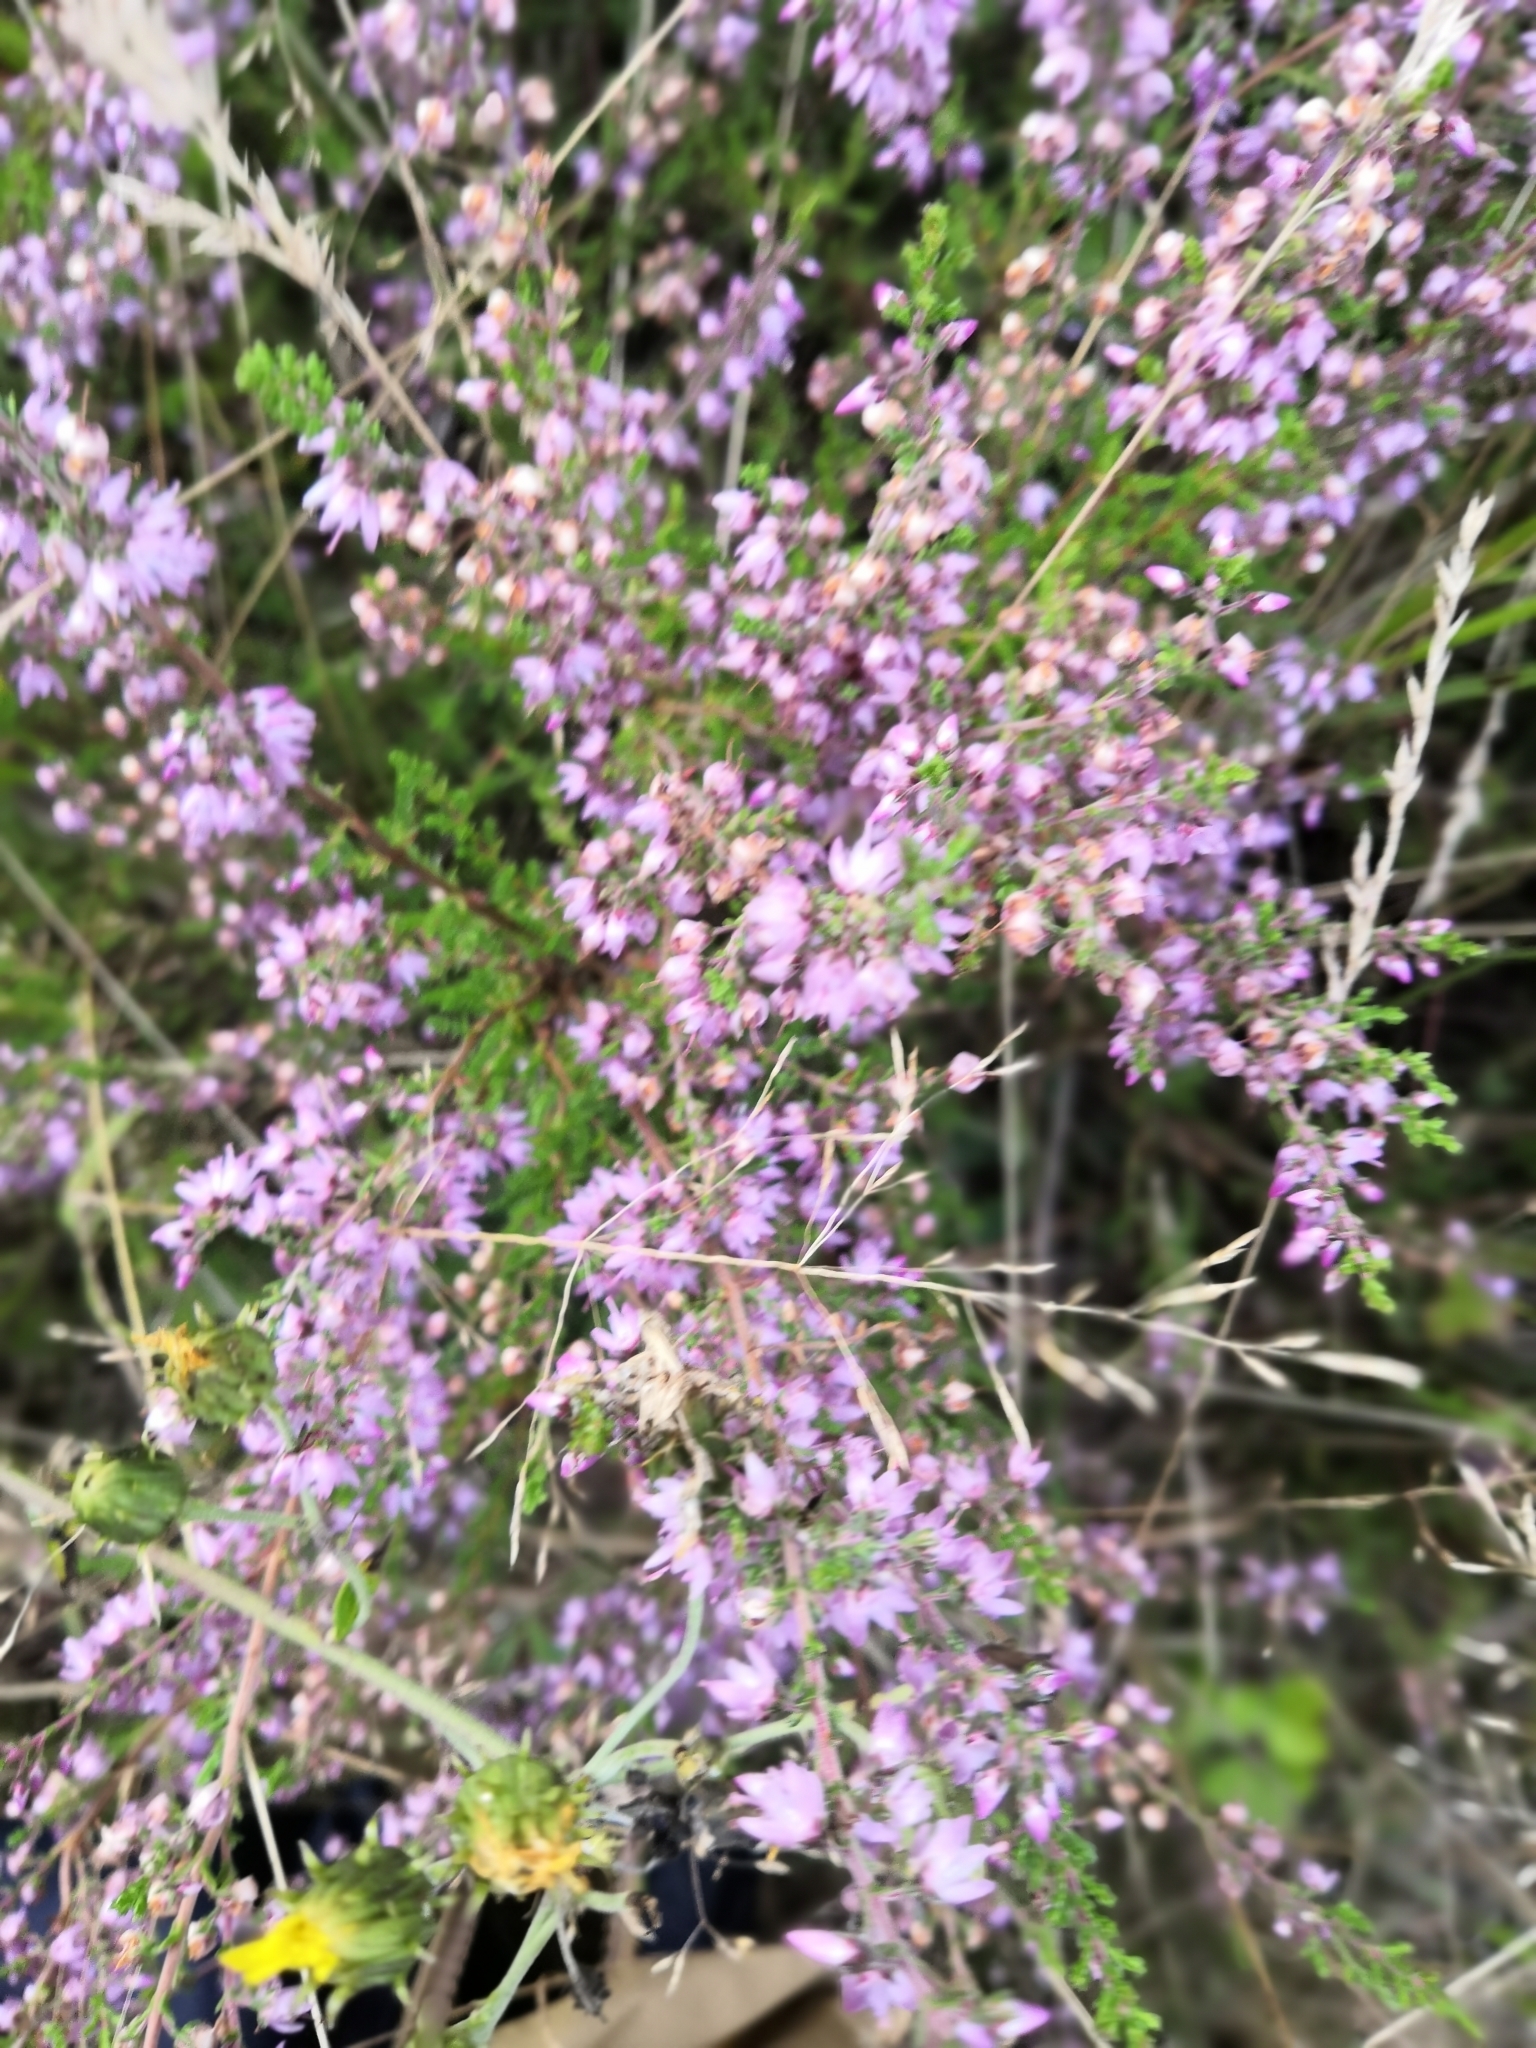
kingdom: Plantae
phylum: Tracheophyta
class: Magnoliopsida
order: Ericales
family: Ericaceae
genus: Calluna
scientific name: Calluna vulgaris
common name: Heather
